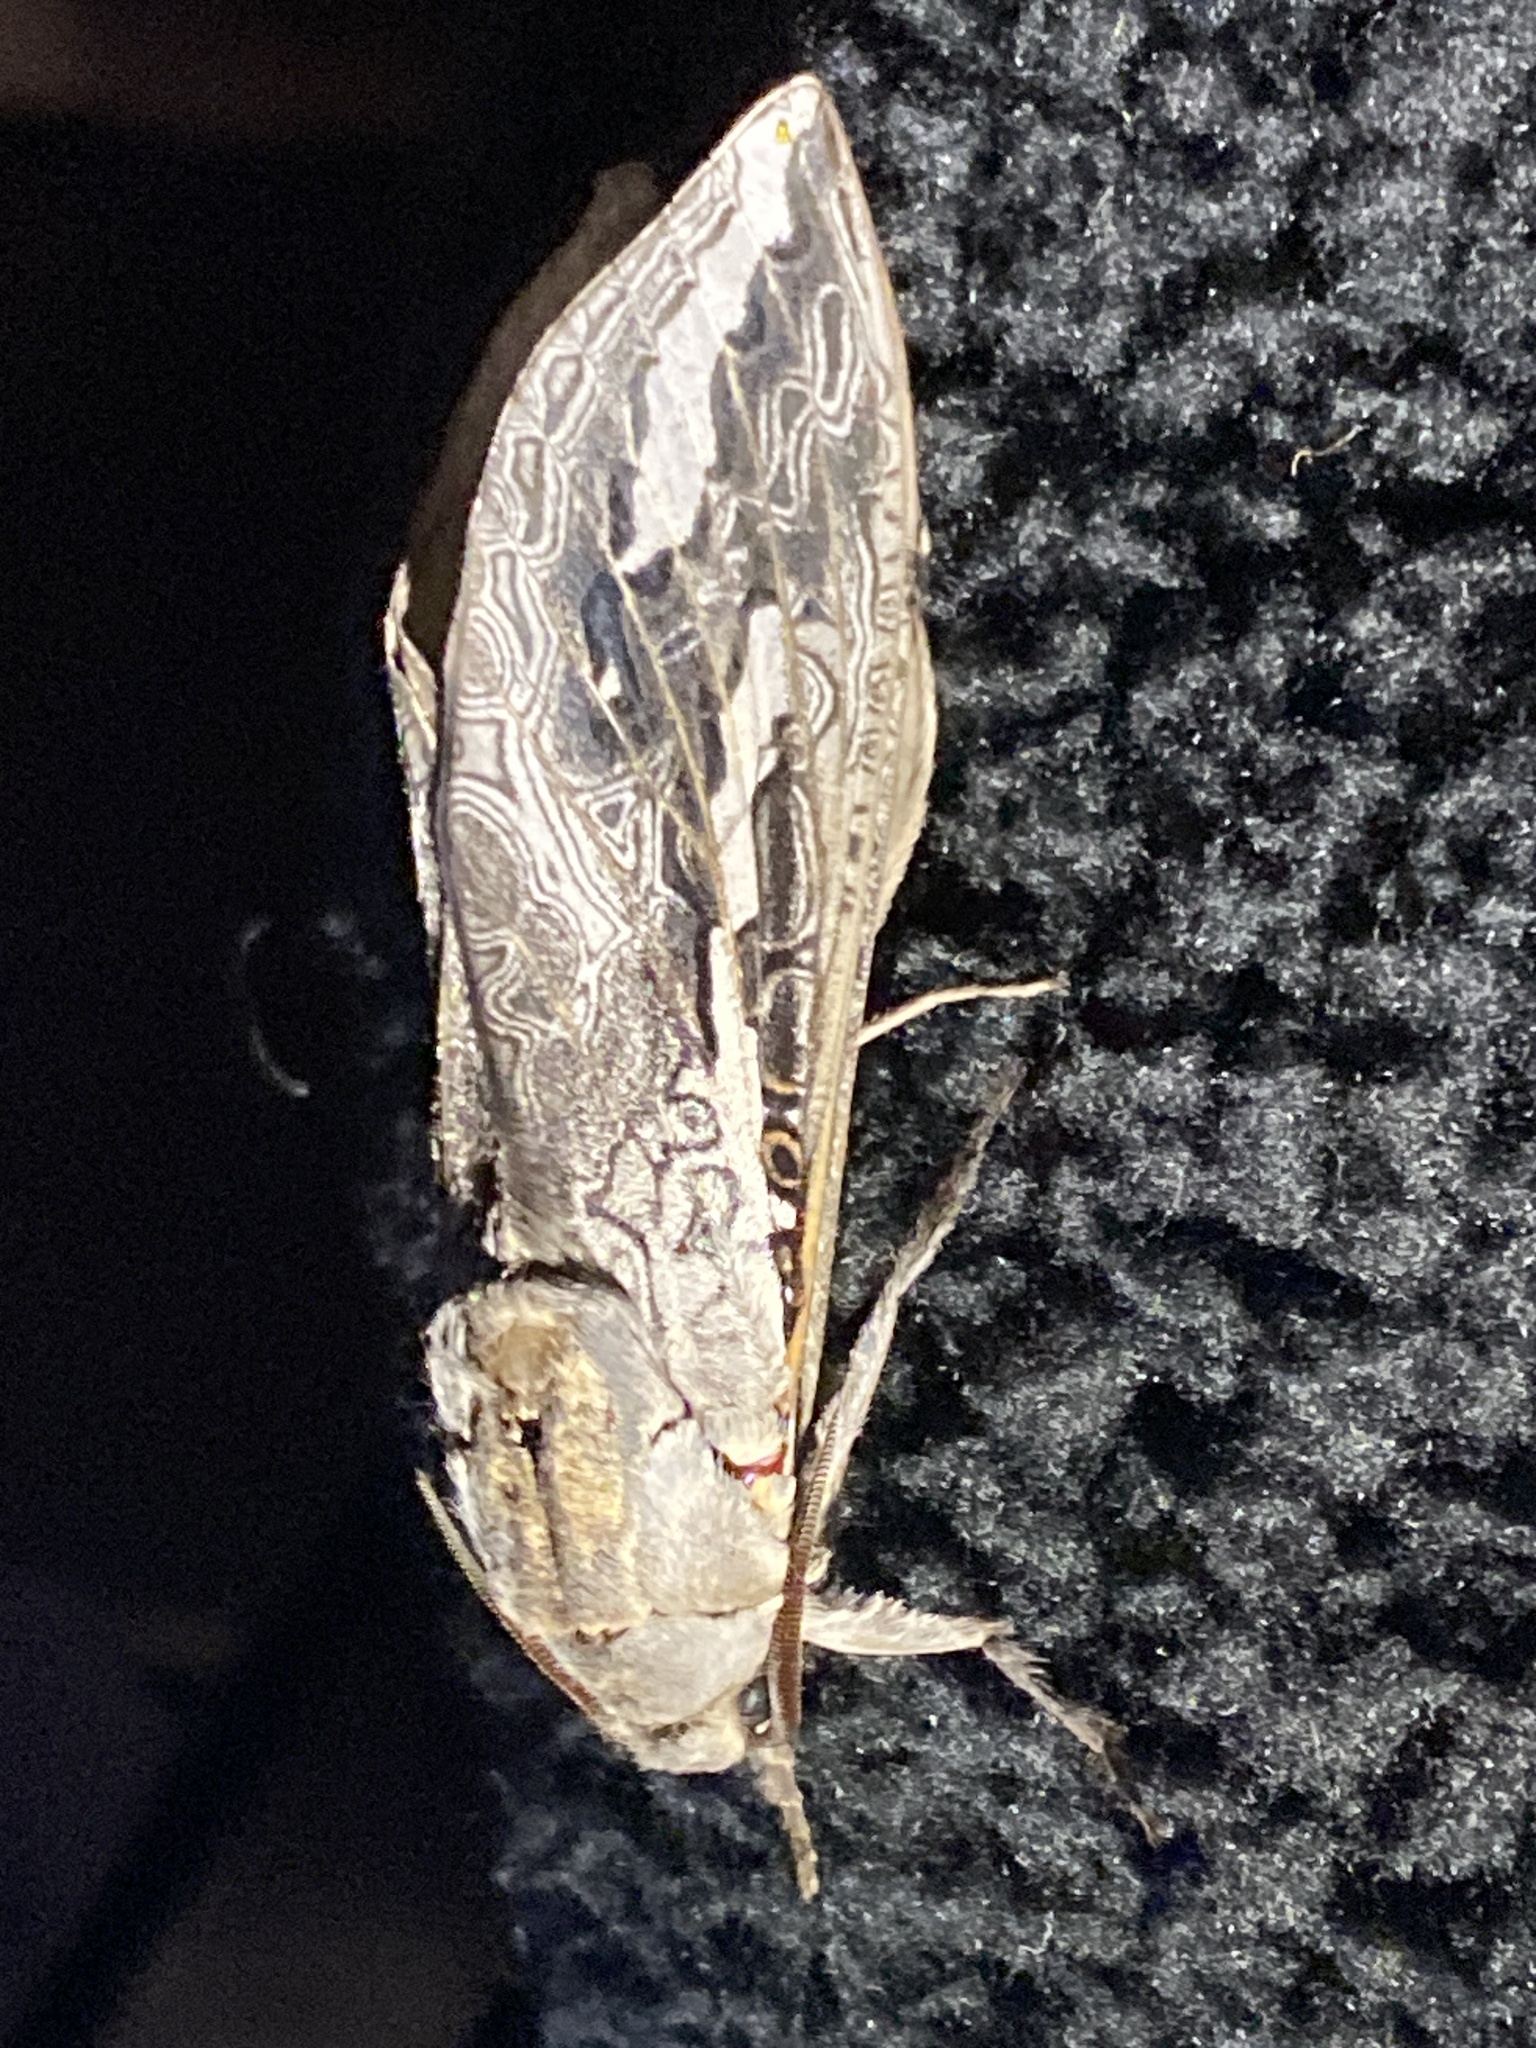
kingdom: Animalia
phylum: Arthropoda
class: Insecta
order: Lepidoptera
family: Hepialidae
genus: Abantiades
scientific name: Abantiades marcidus
